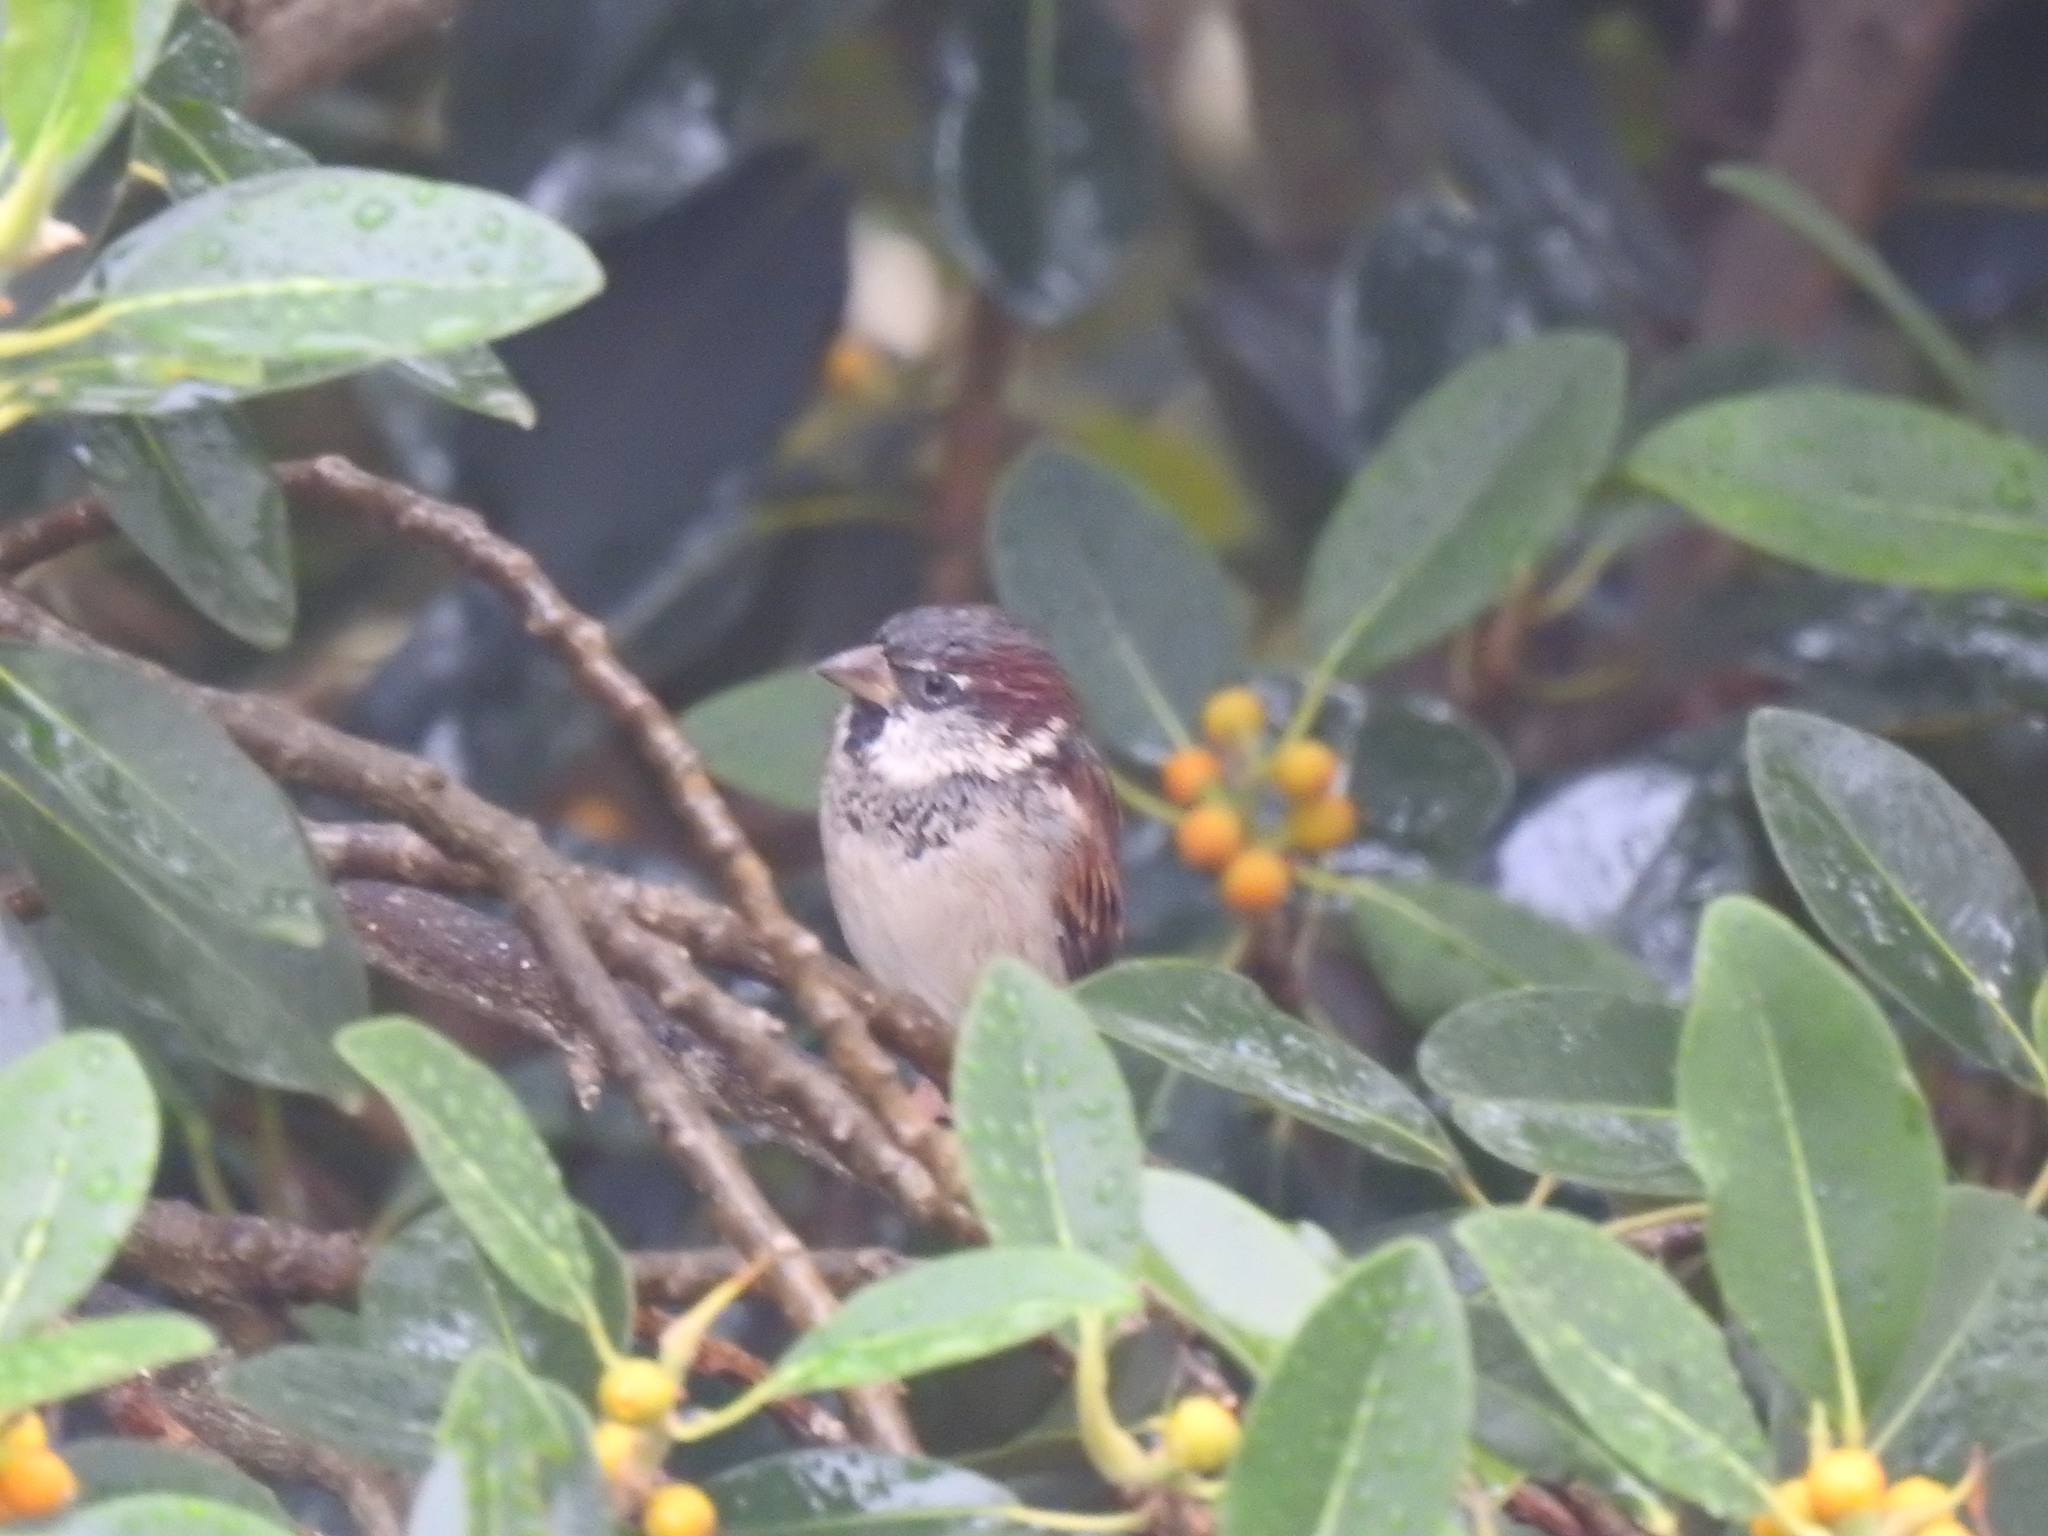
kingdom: Animalia
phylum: Chordata
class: Aves
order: Passeriformes
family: Passeridae
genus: Passer
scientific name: Passer domesticus
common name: House sparrow
